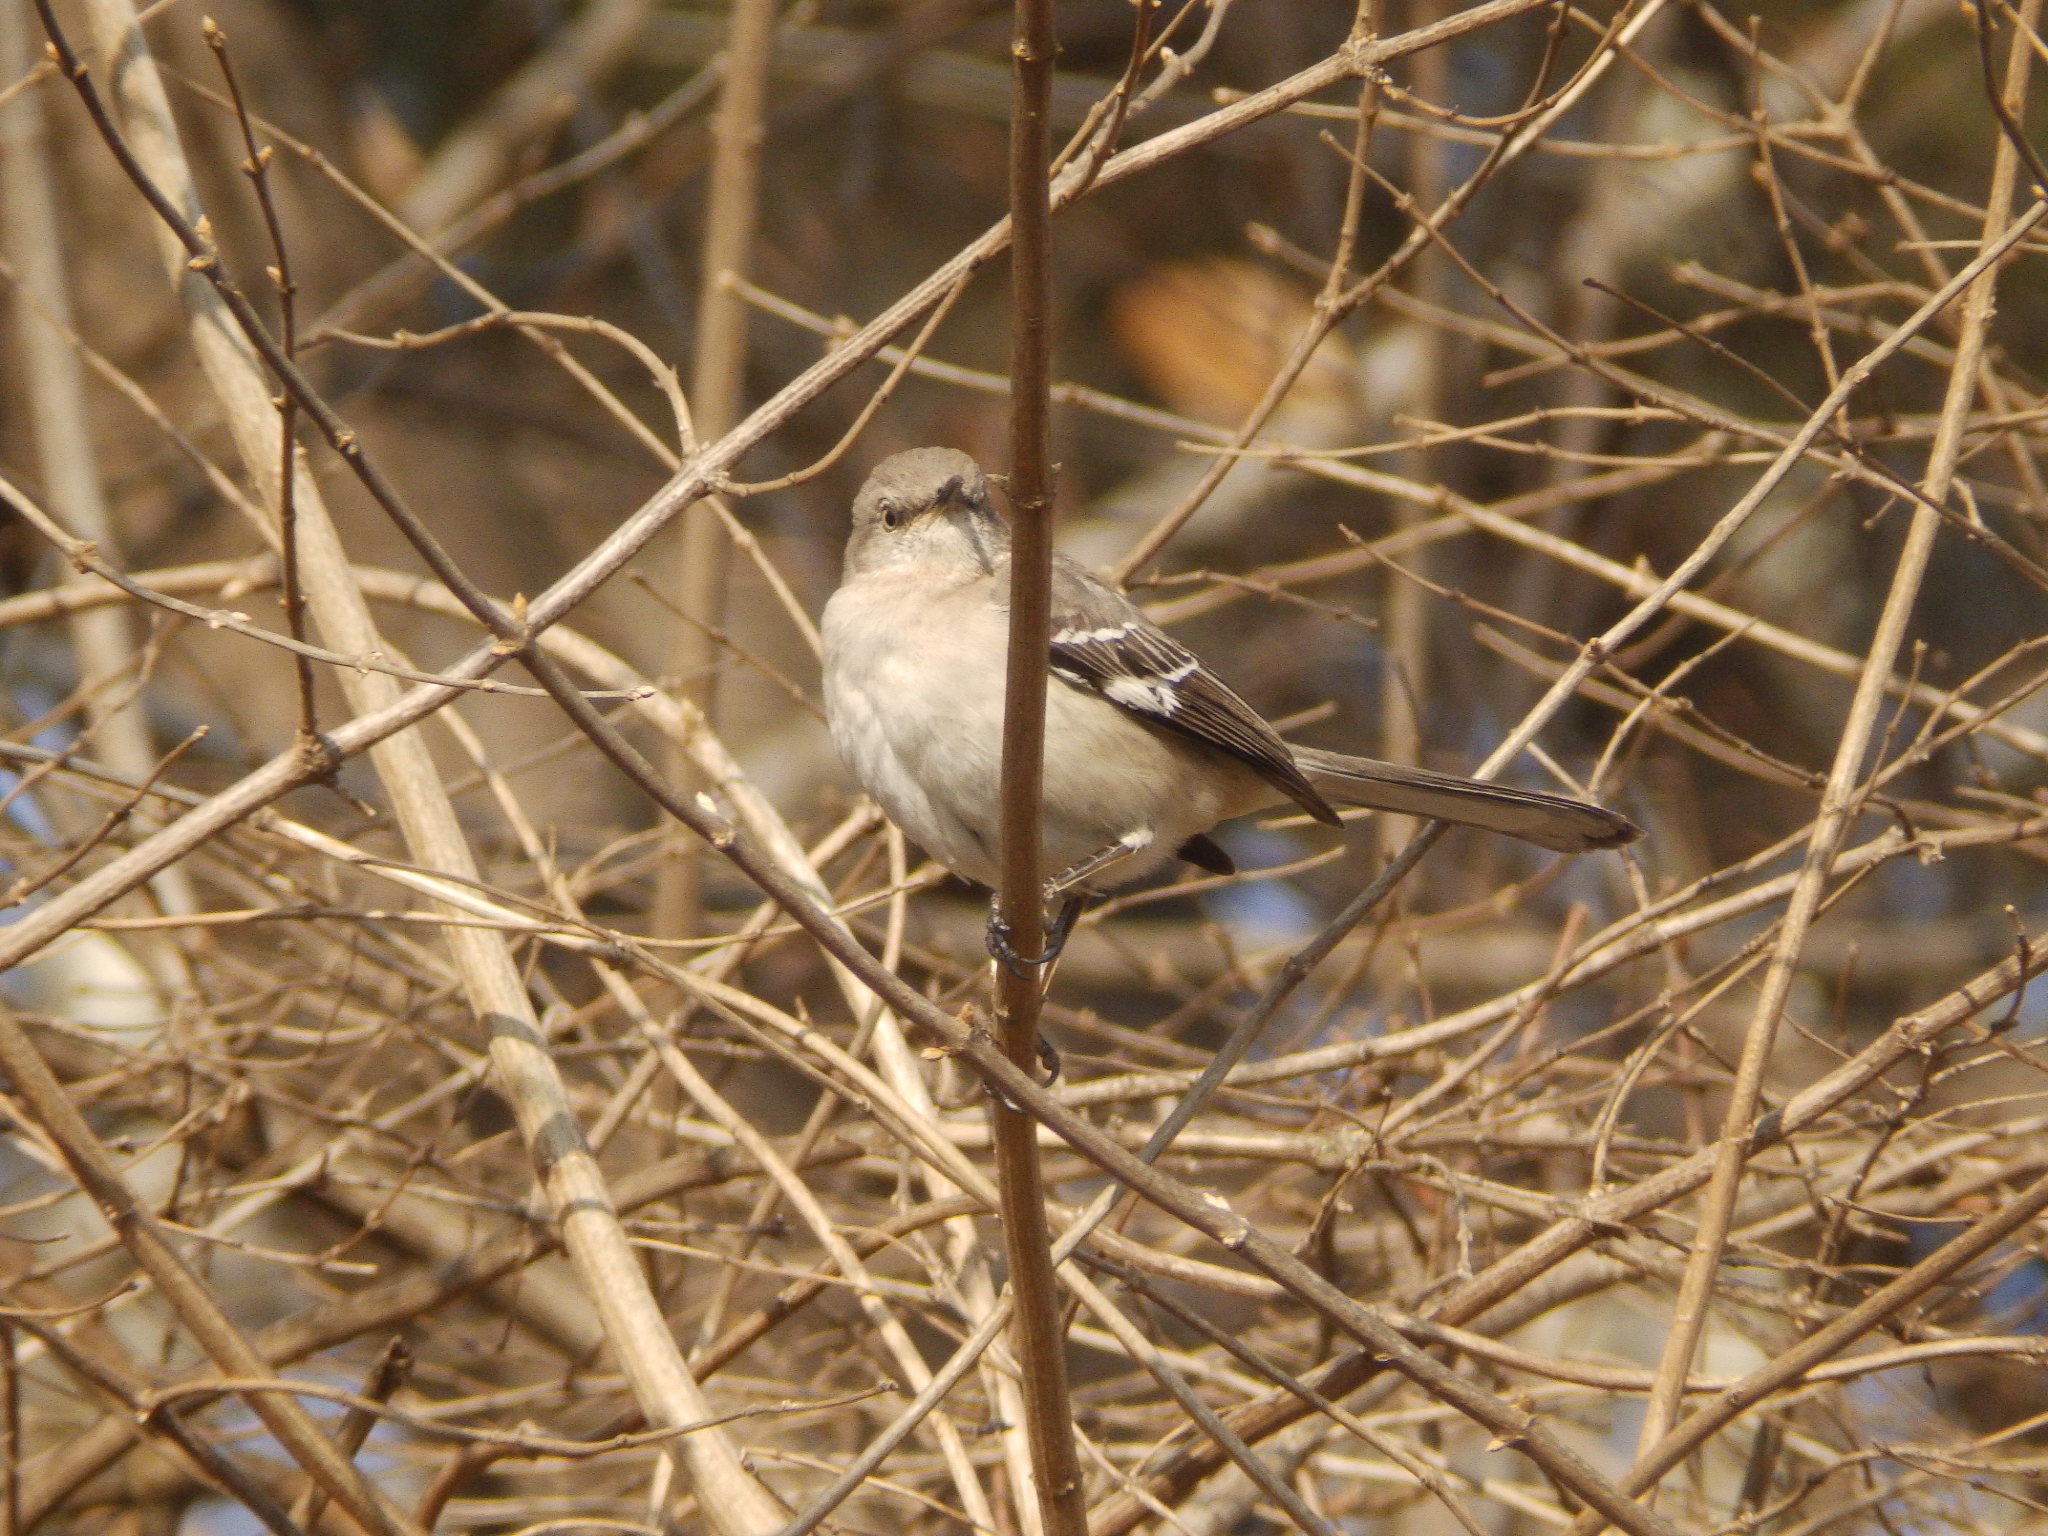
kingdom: Animalia
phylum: Chordata
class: Aves
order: Passeriformes
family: Mimidae
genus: Mimus
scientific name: Mimus polyglottos
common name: Northern mockingbird
